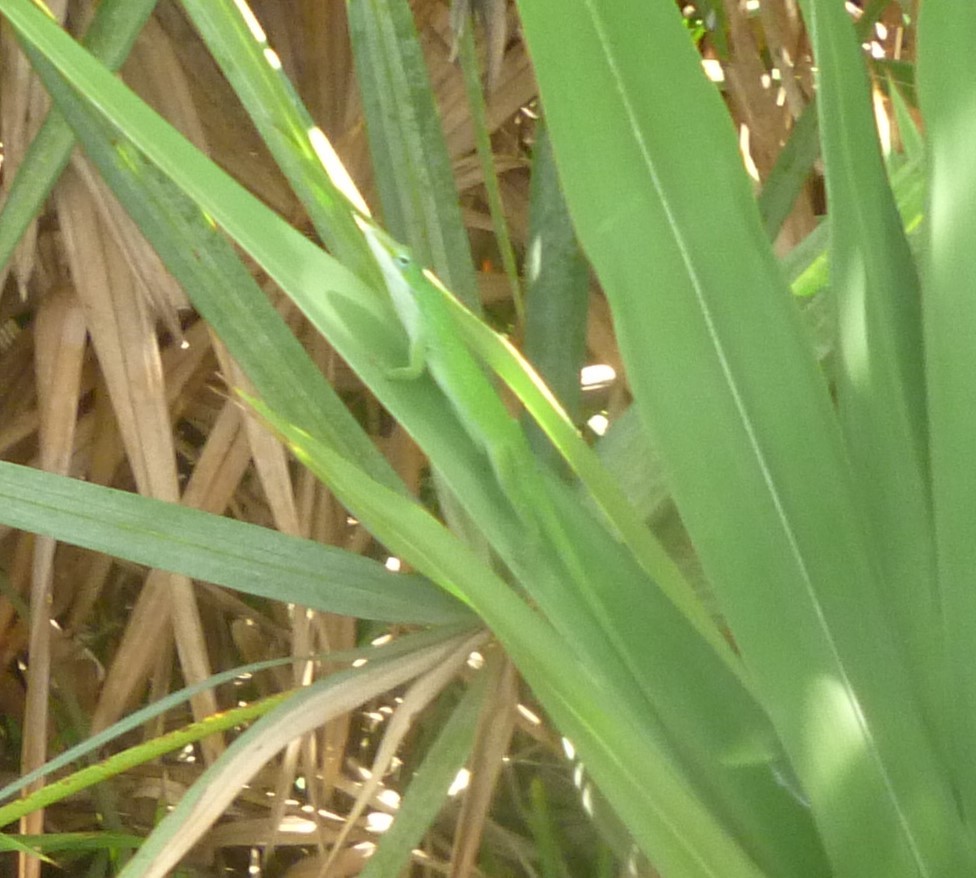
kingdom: Animalia
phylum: Chordata
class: Squamata
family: Dactyloidae
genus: Anolis
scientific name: Anolis carolinensis
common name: Green anole
